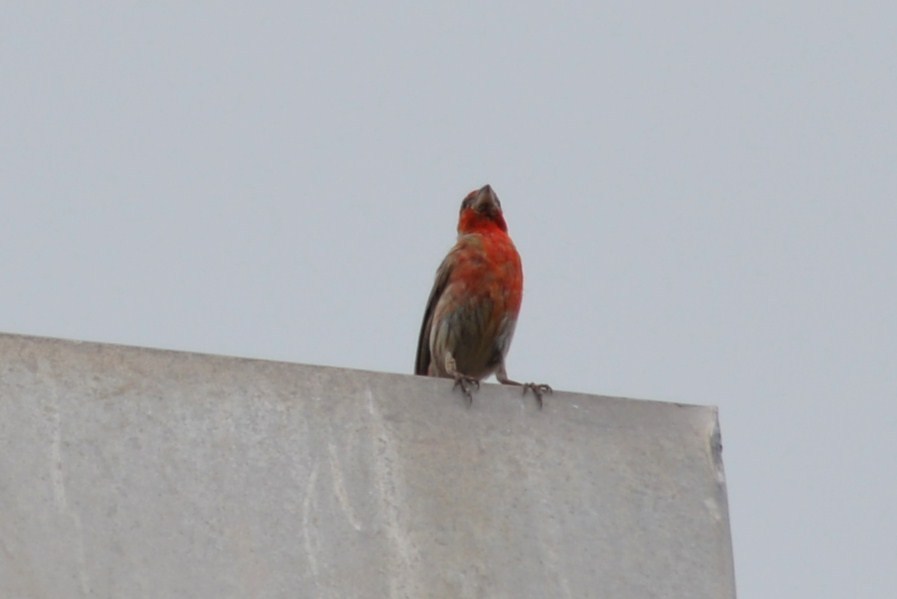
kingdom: Animalia
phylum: Chordata
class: Aves
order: Passeriformes
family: Fringillidae
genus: Haemorhous
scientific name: Haemorhous mexicanus
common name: House finch
